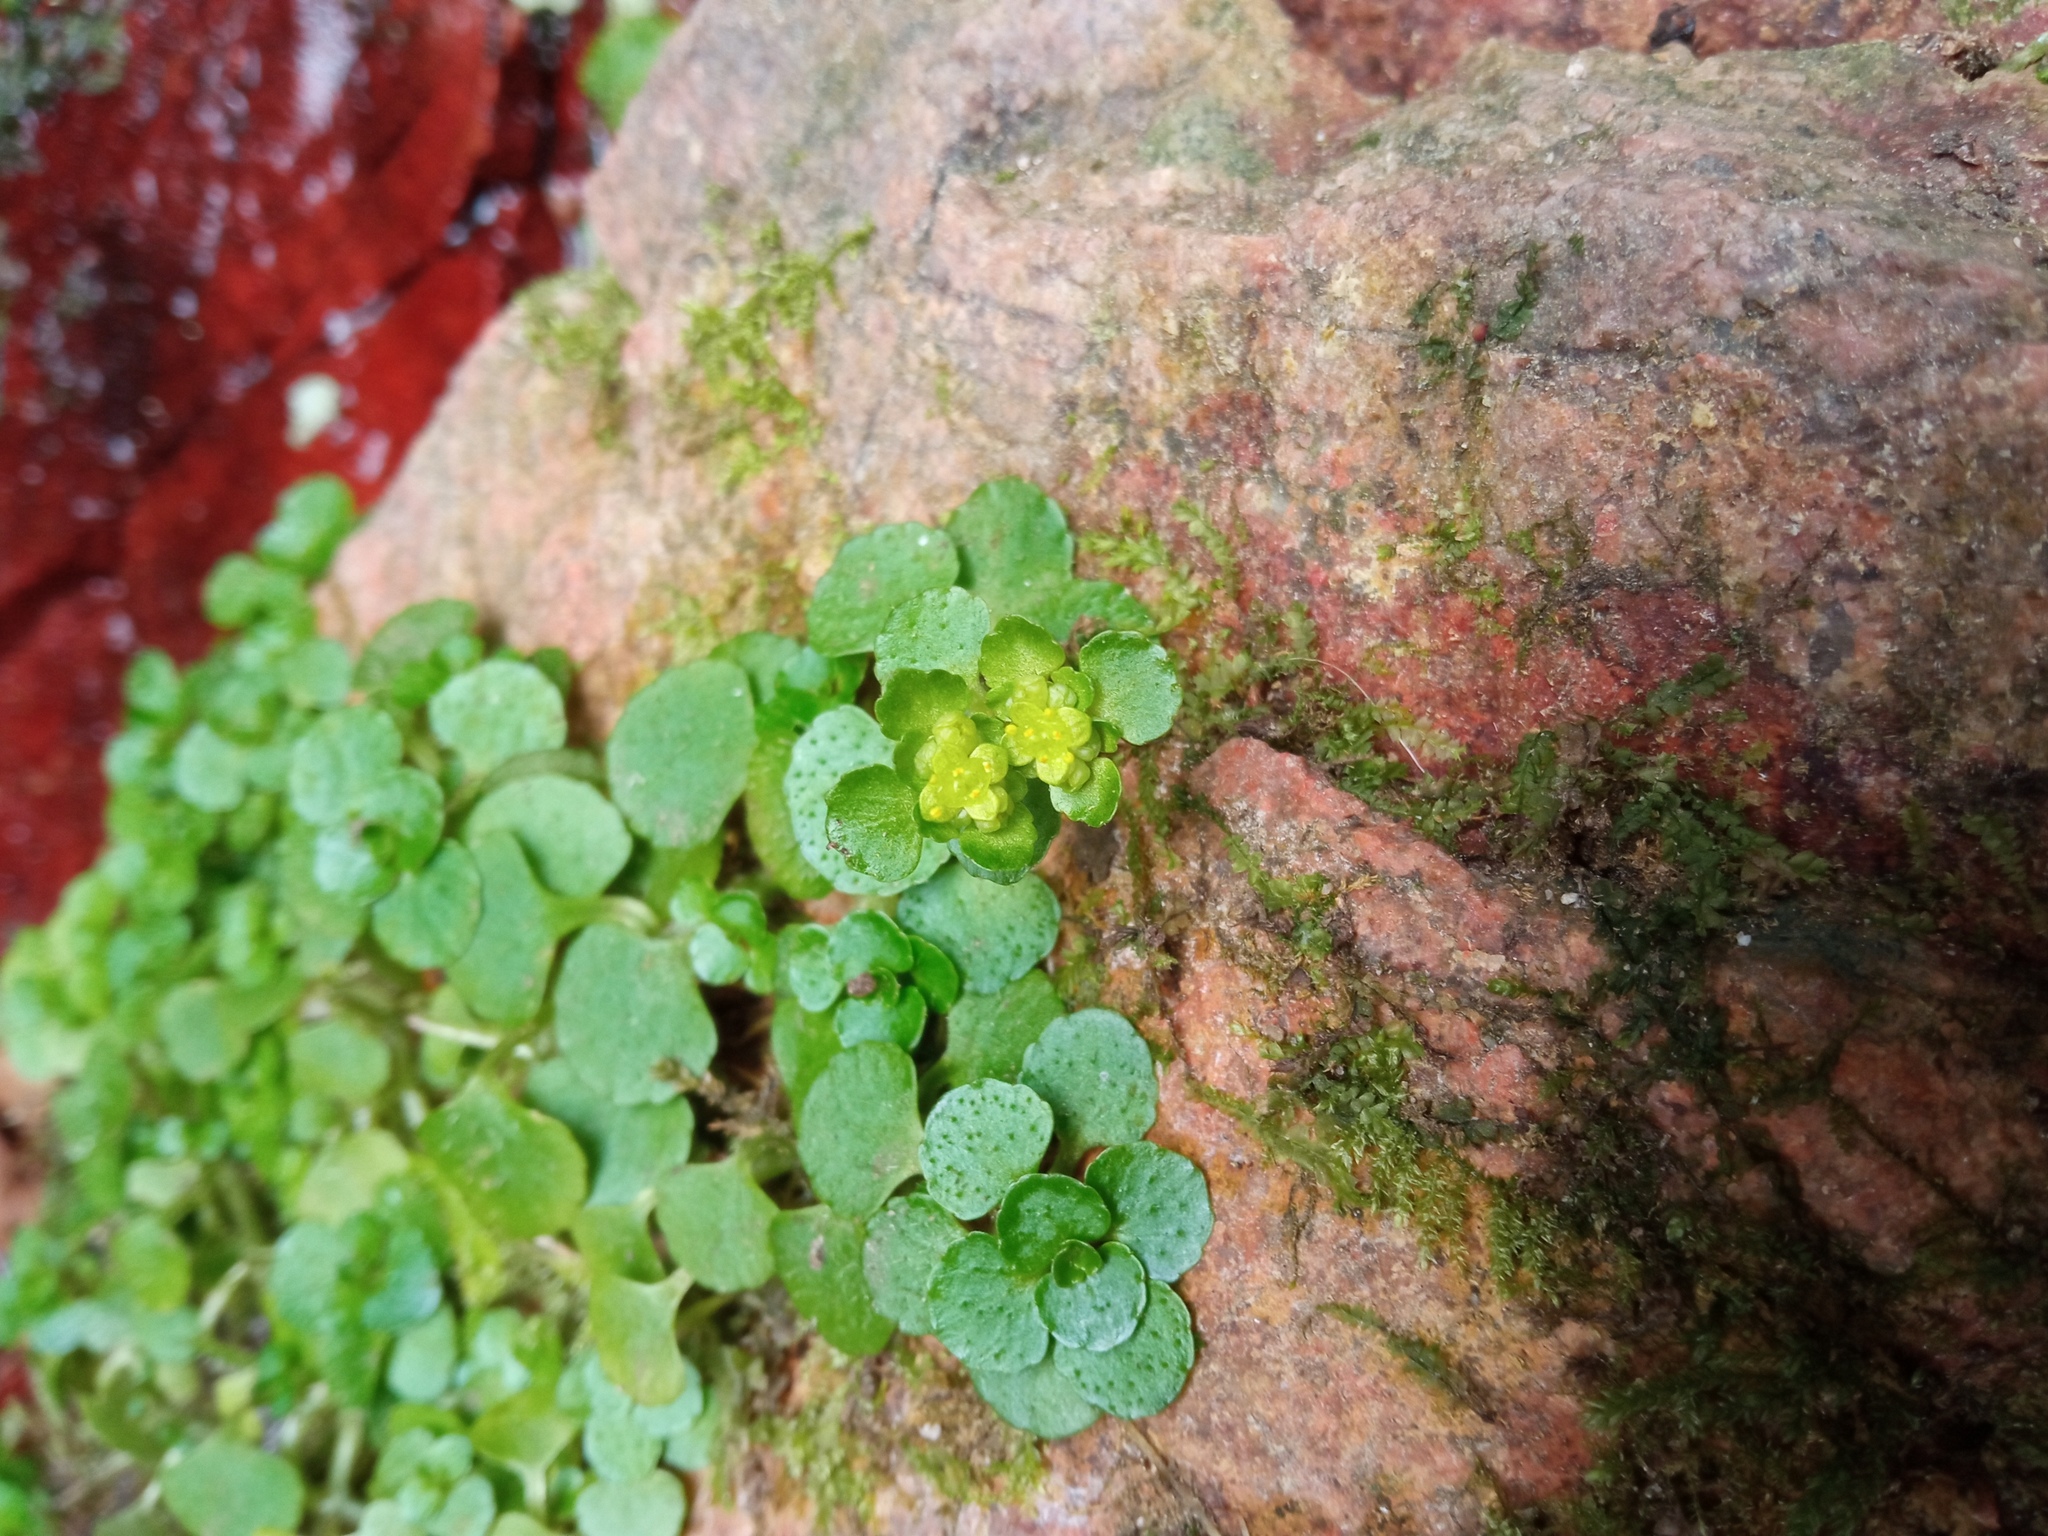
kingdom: Plantae
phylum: Tracheophyta
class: Magnoliopsida
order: Saxifragales
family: Saxifragaceae
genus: Chrysosplenium
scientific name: Chrysosplenium oppositifolium
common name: Opposite-leaved golden-saxifrage
